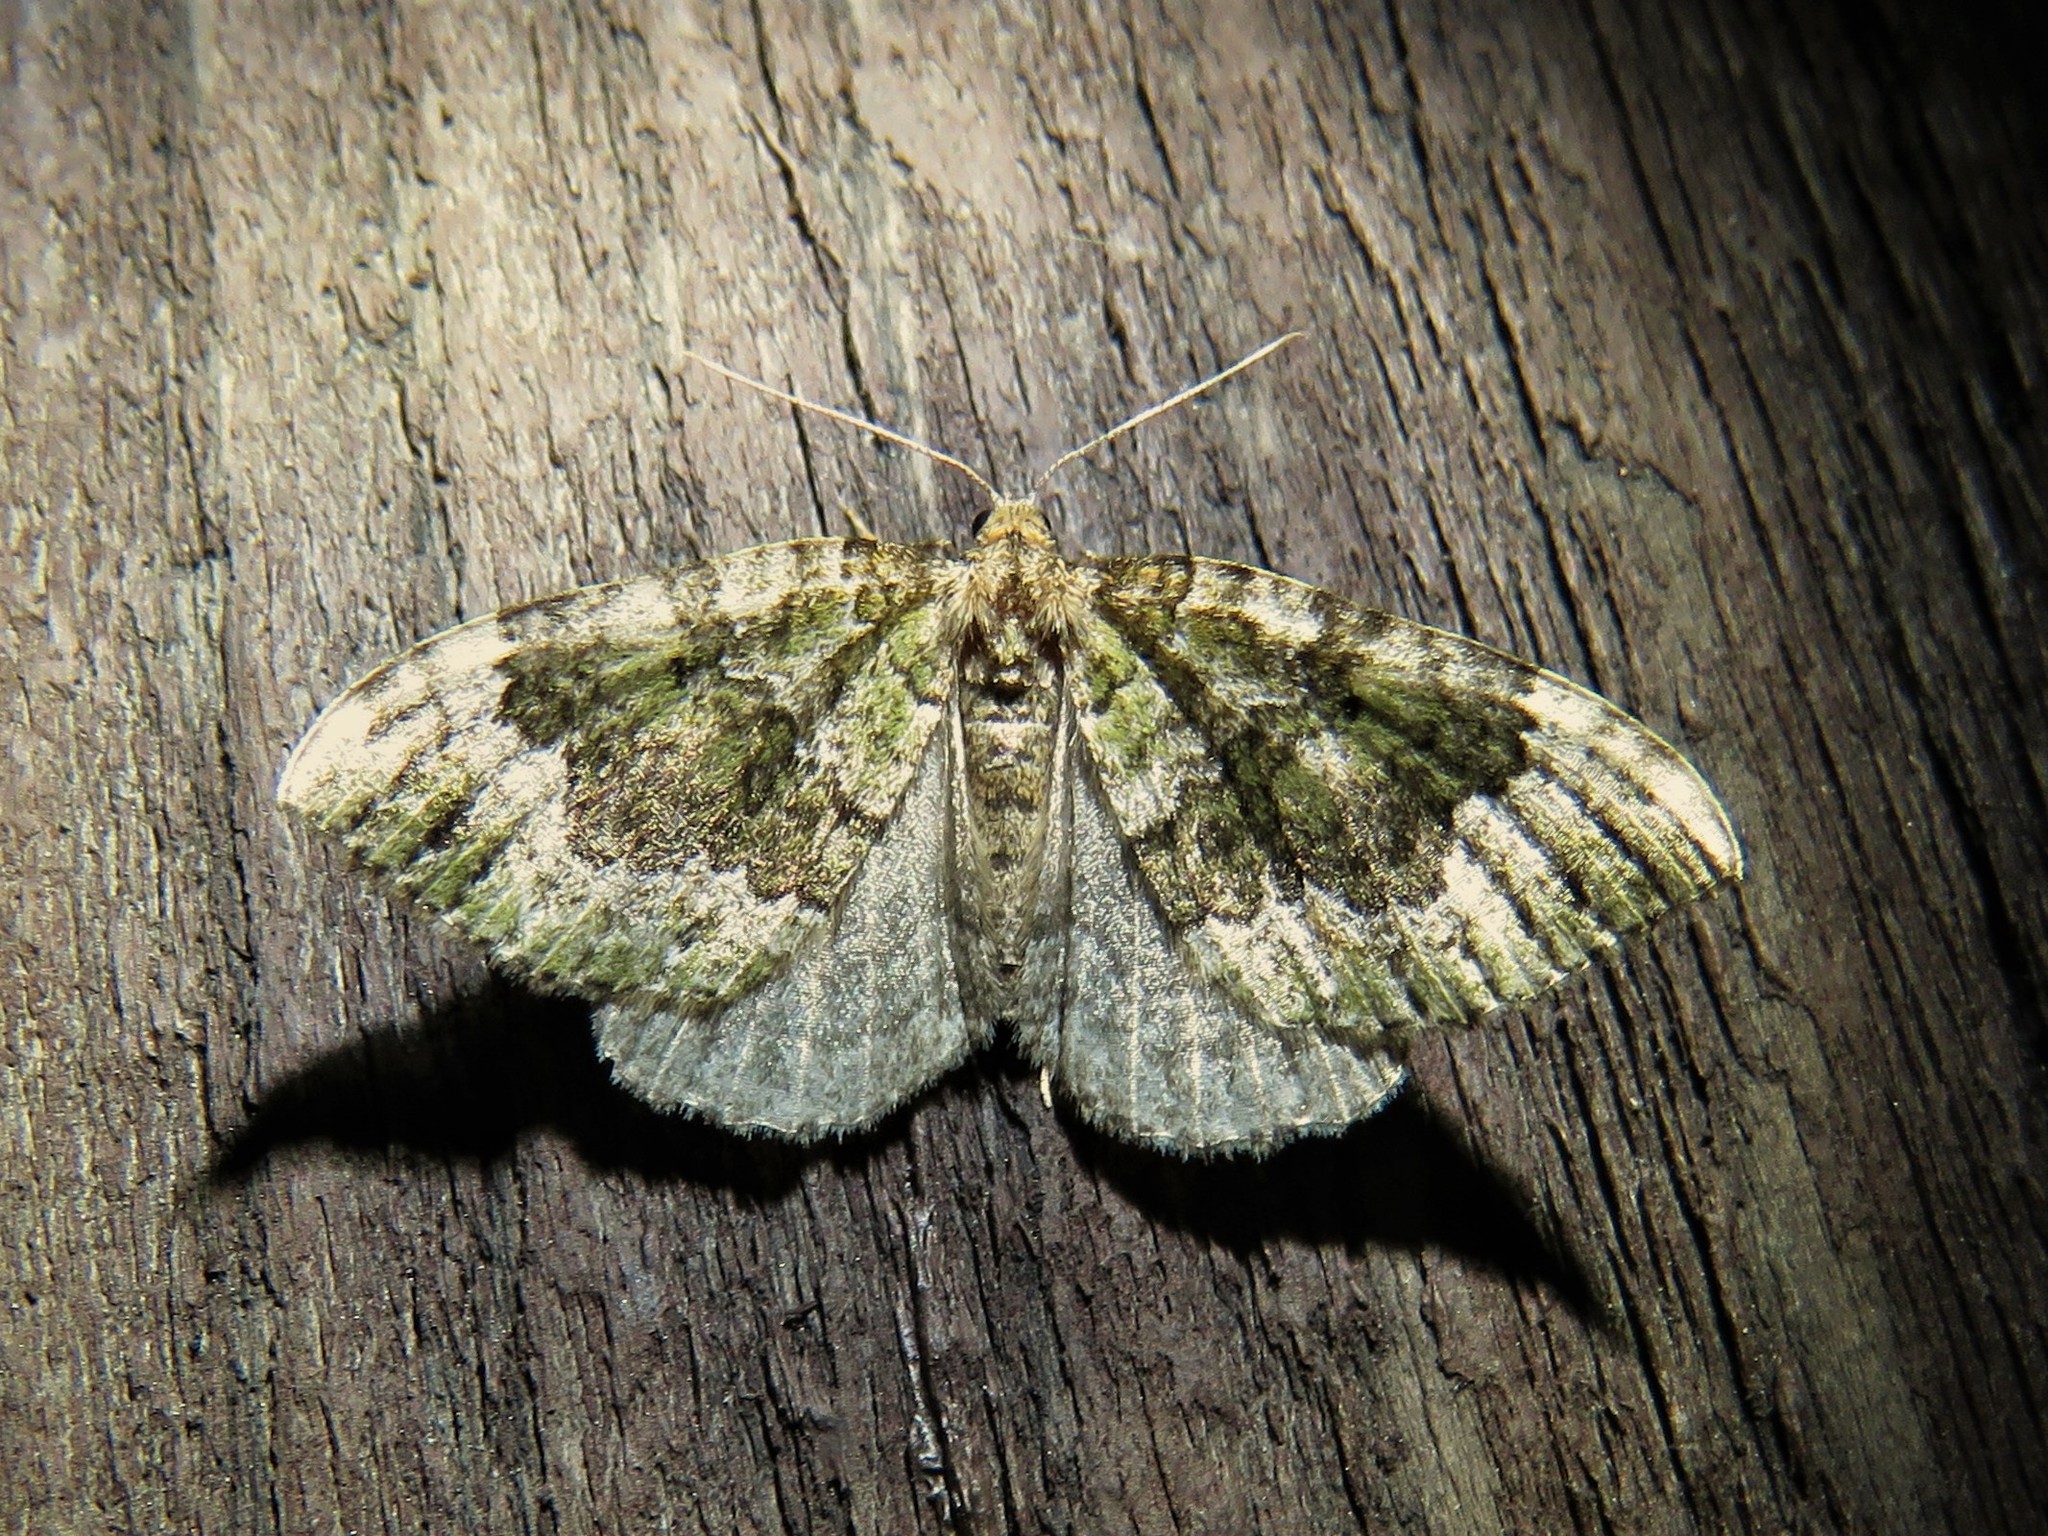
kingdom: Animalia
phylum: Arthropoda
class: Insecta
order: Lepidoptera
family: Geometridae
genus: Colostygia
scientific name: Colostygia olivata
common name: Beech-green carpet
